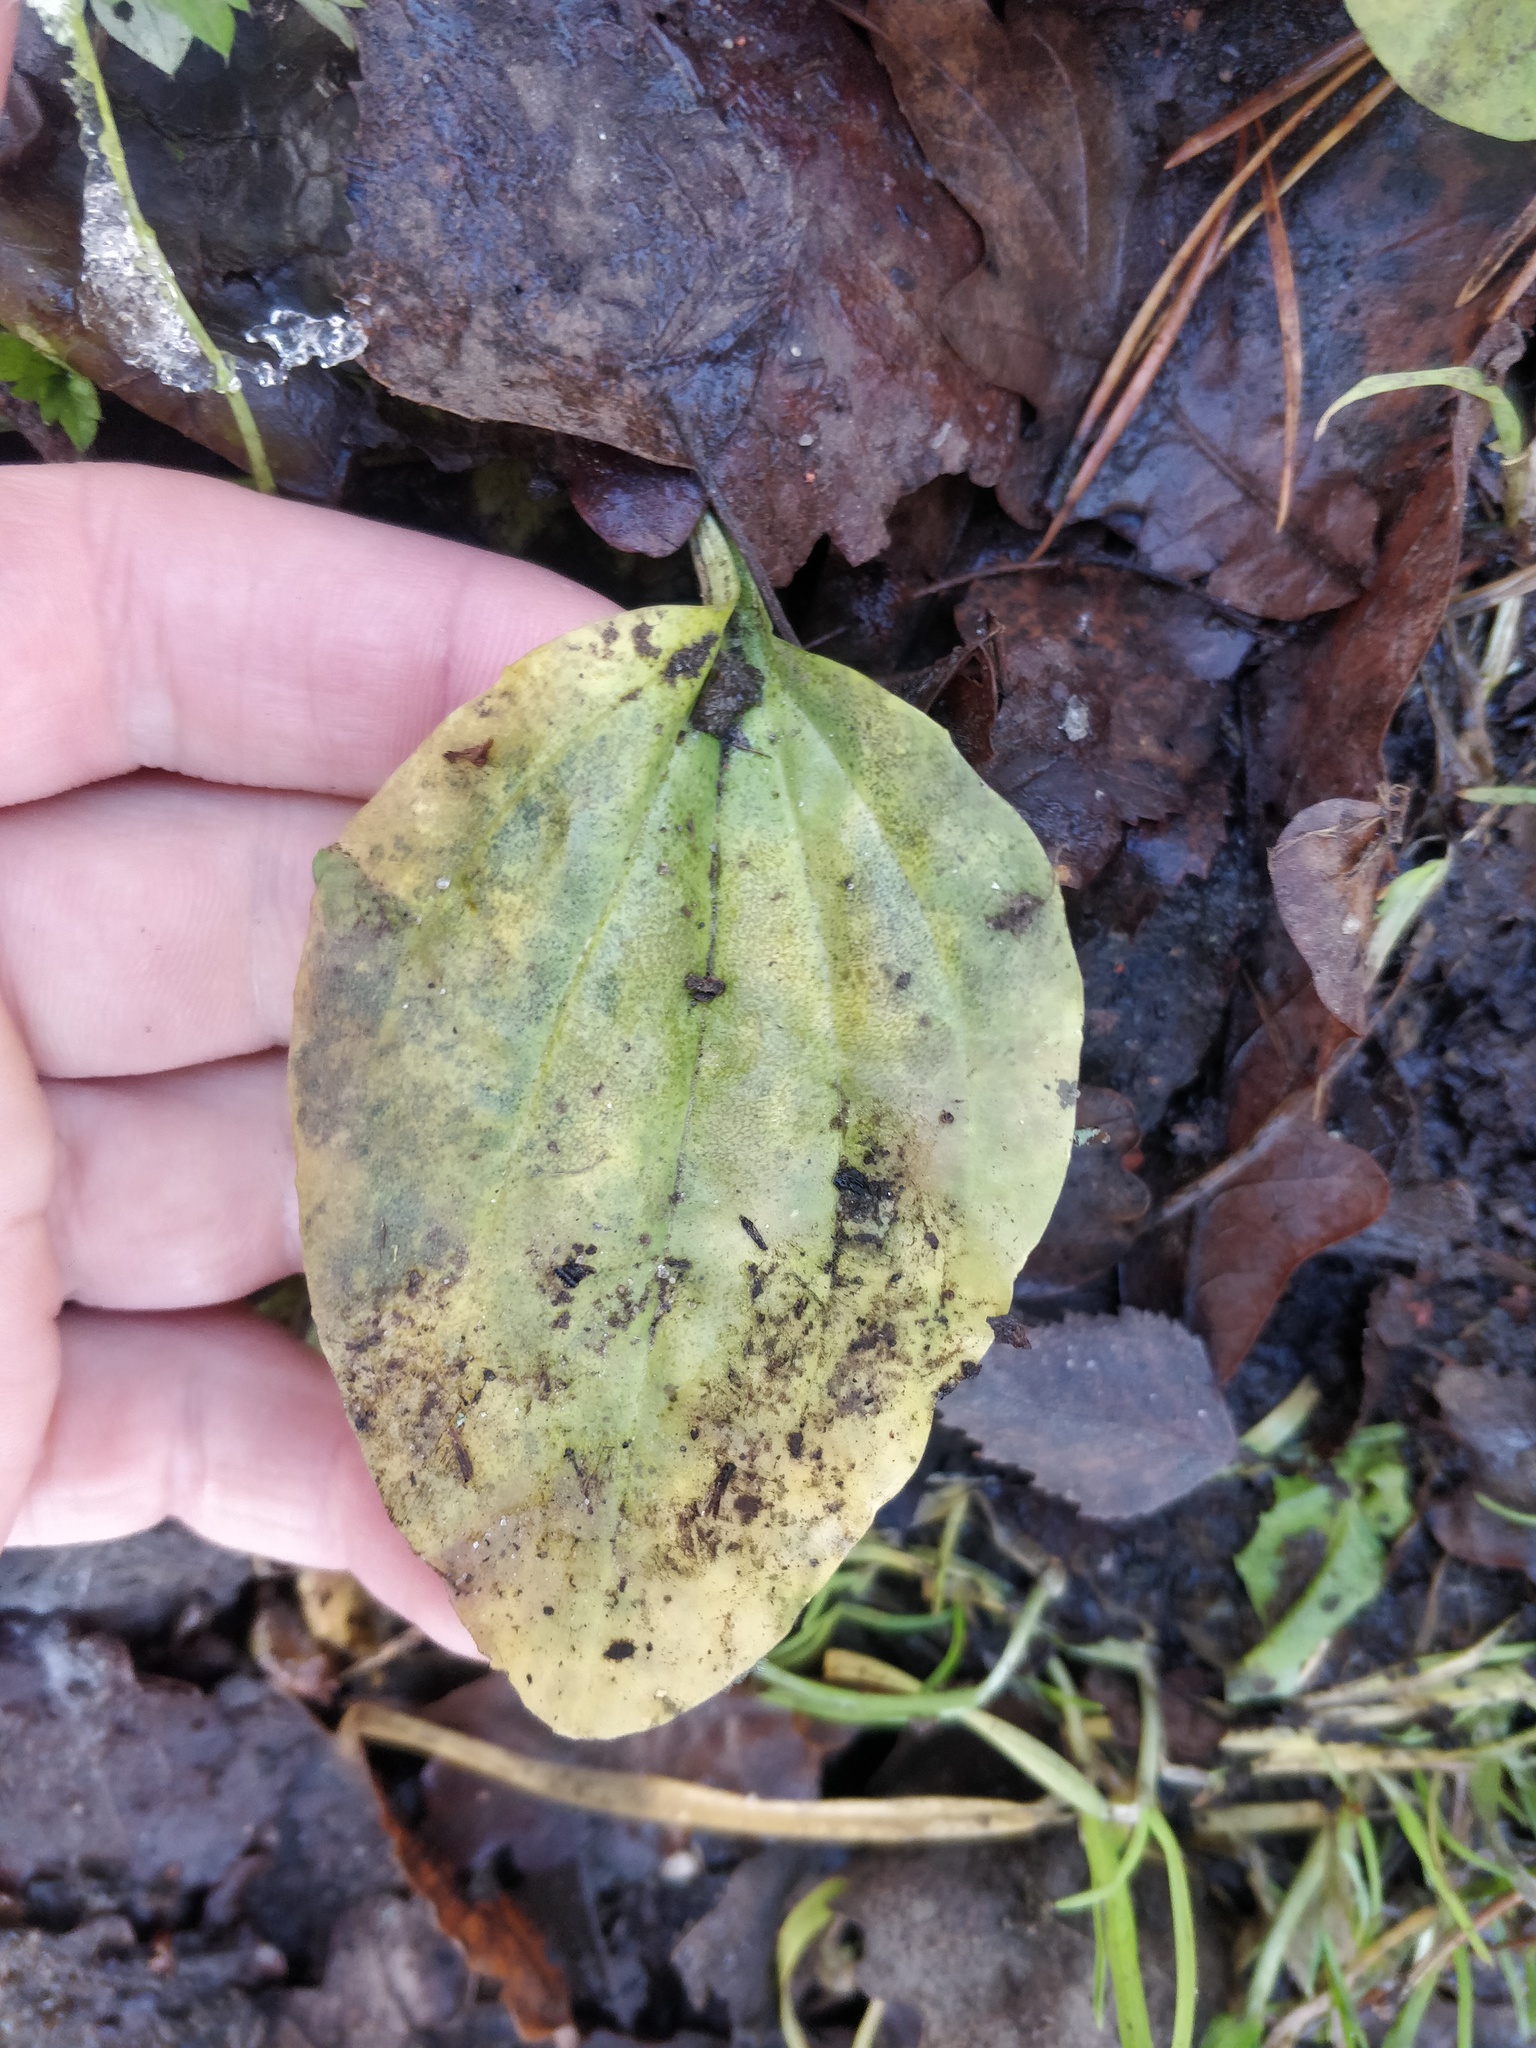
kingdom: Plantae
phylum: Tracheophyta
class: Magnoliopsida
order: Lamiales
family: Plantaginaceae
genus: Plantago
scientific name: Plantago major
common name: Common plantain
